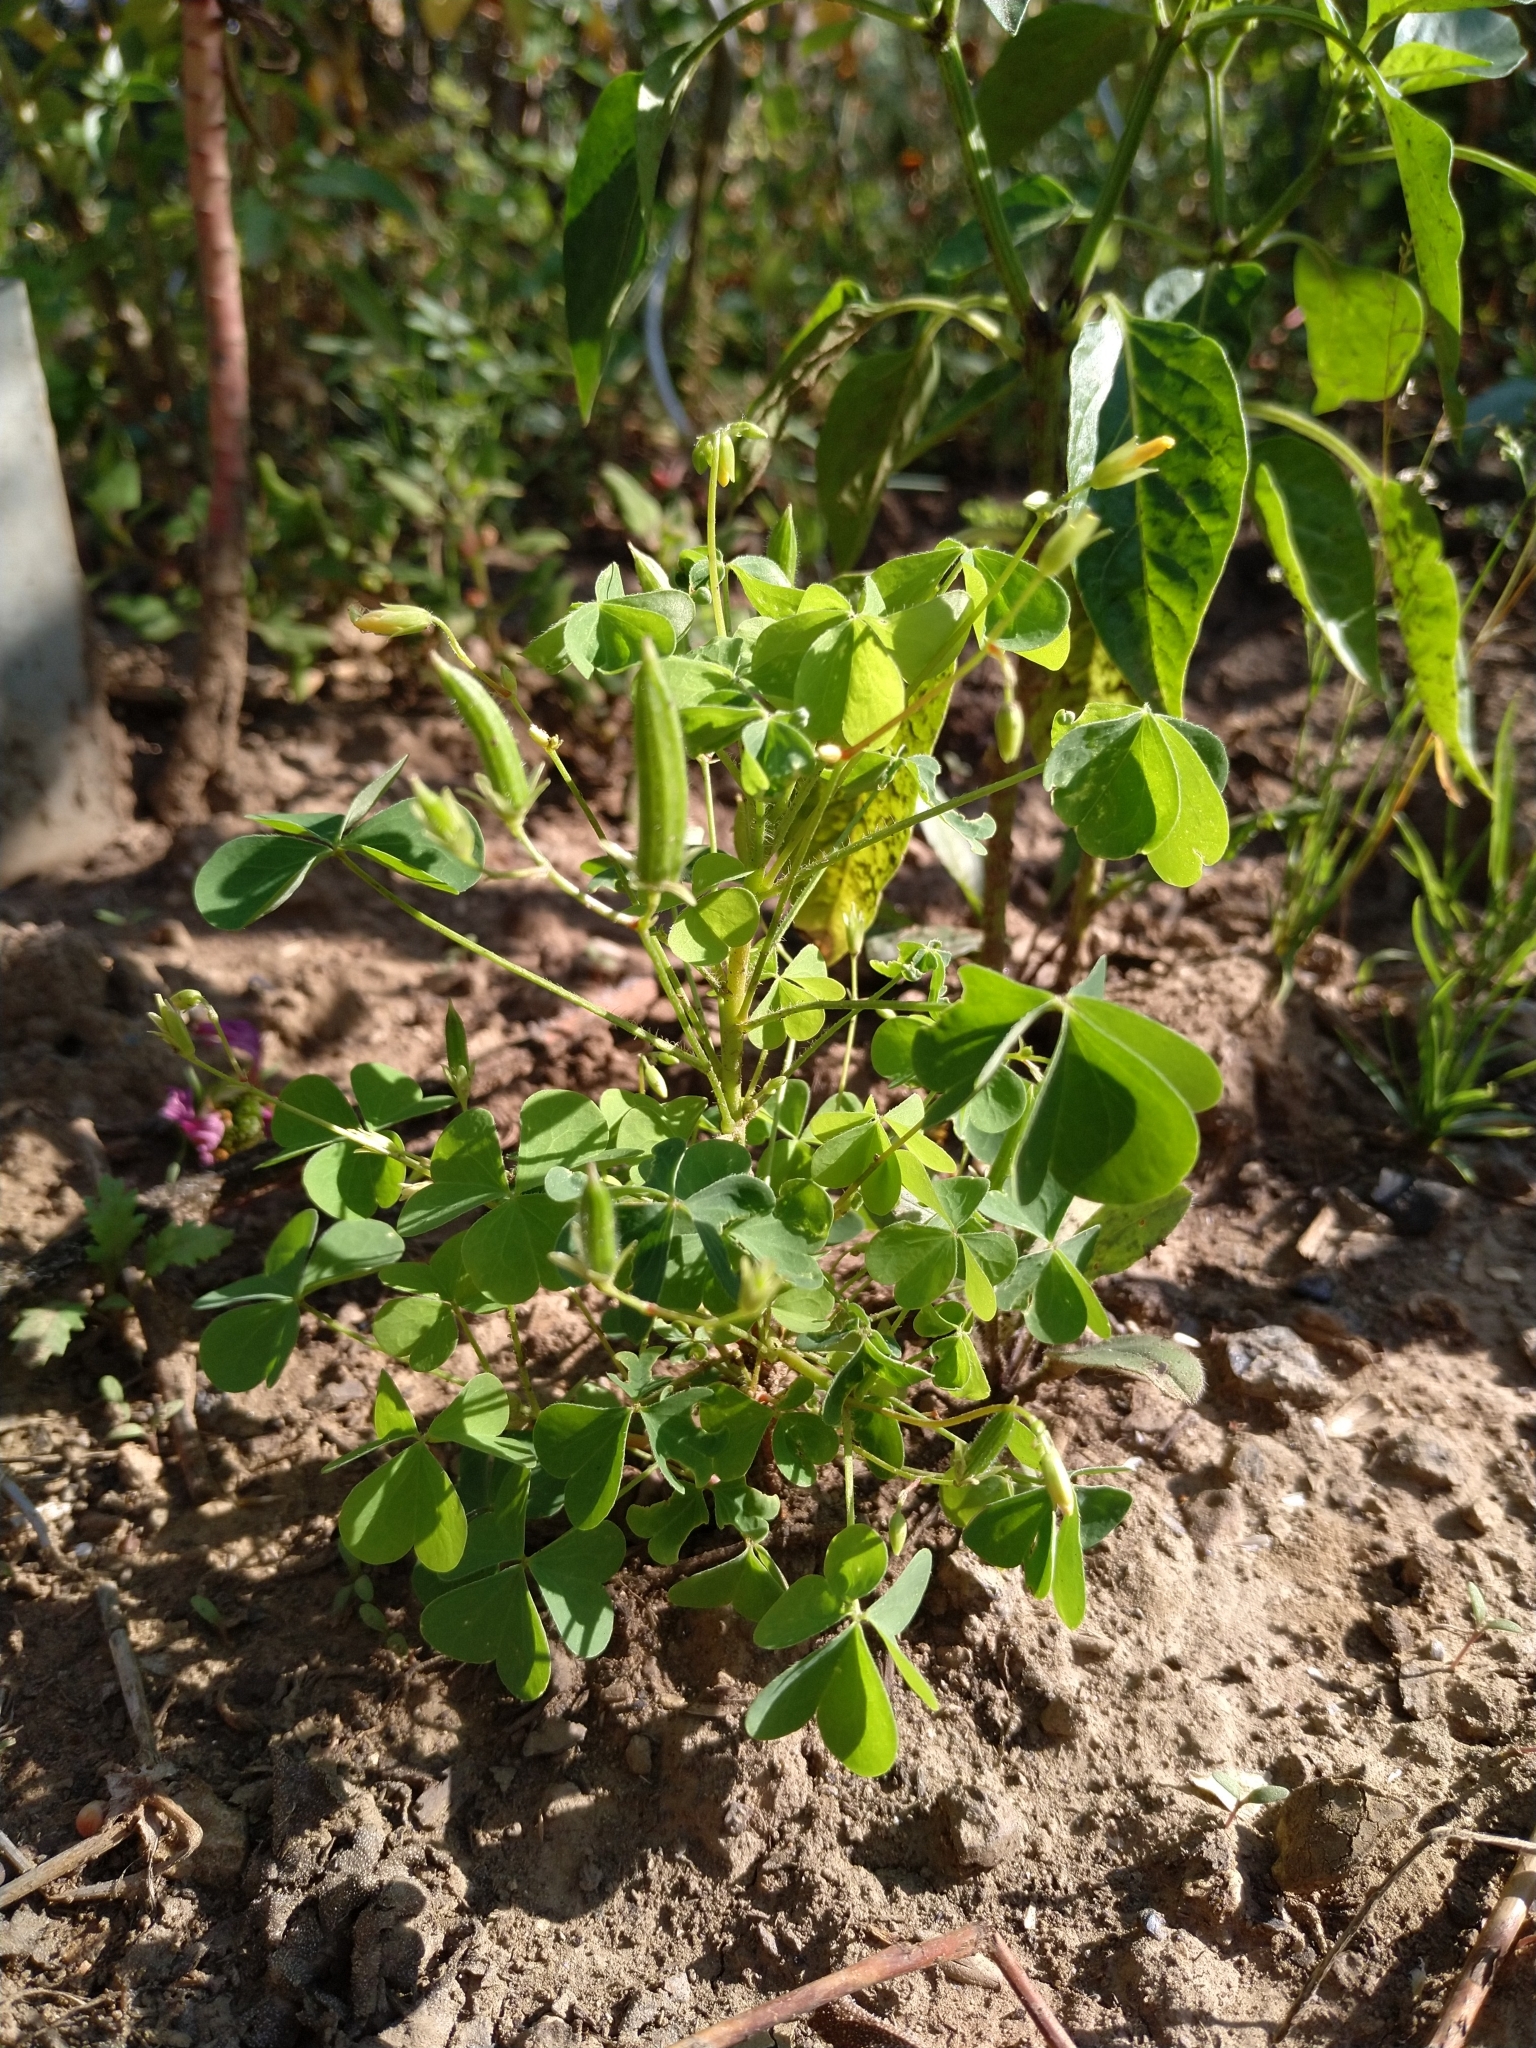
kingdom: Plantae
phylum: Tracheophyta
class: Magnoliopsida
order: Oxalidales
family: Oxalidaceae
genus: Oxalis
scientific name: Oxalis stricta
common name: Upright yellow-sorrel
